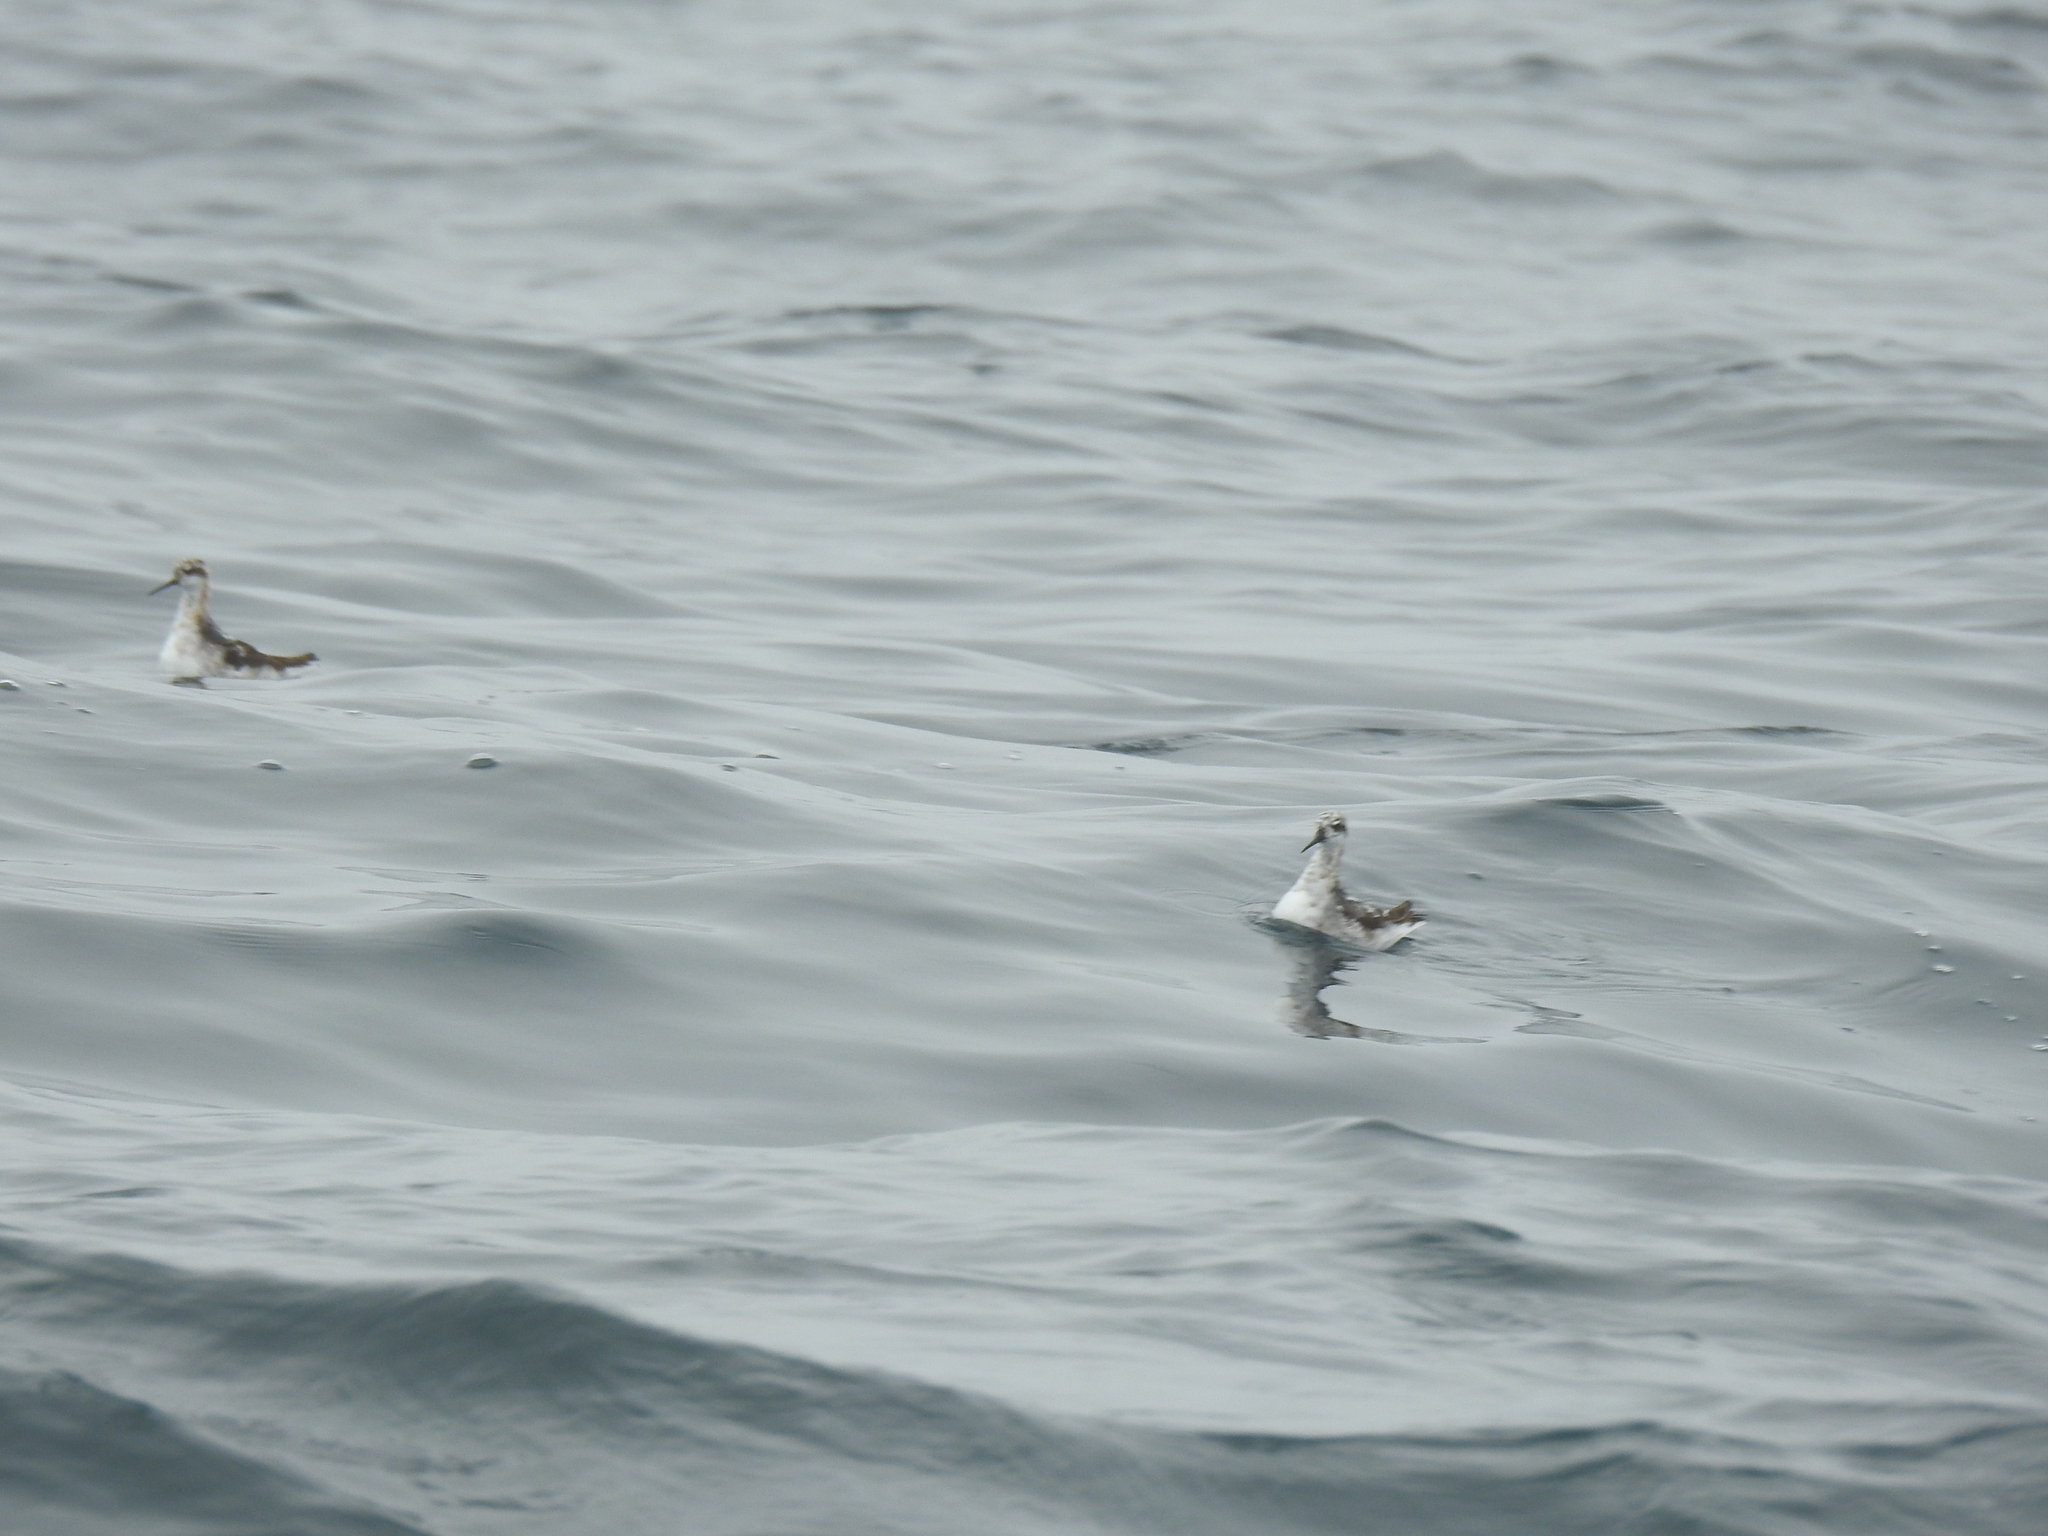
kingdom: Animalia
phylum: Chordata
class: Aves
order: Charadriiformes
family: Scolopacidae
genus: Phalaropus
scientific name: Phalaropus lobatus
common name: Red-necked phalarope
